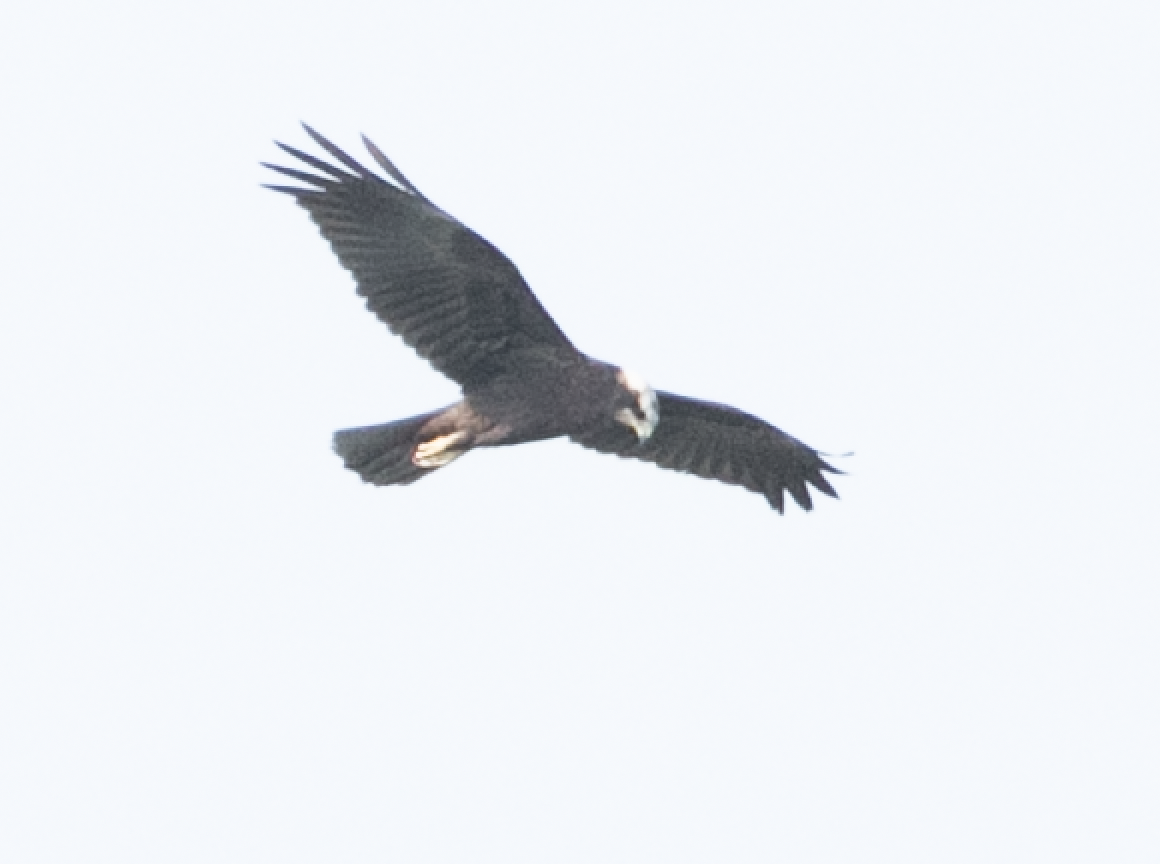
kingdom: Animalia
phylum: Chordata
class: Aves
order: Accipitriformes
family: Accipitridae
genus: Circus
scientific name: Circus aeruginosus
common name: Western marsh harrier
